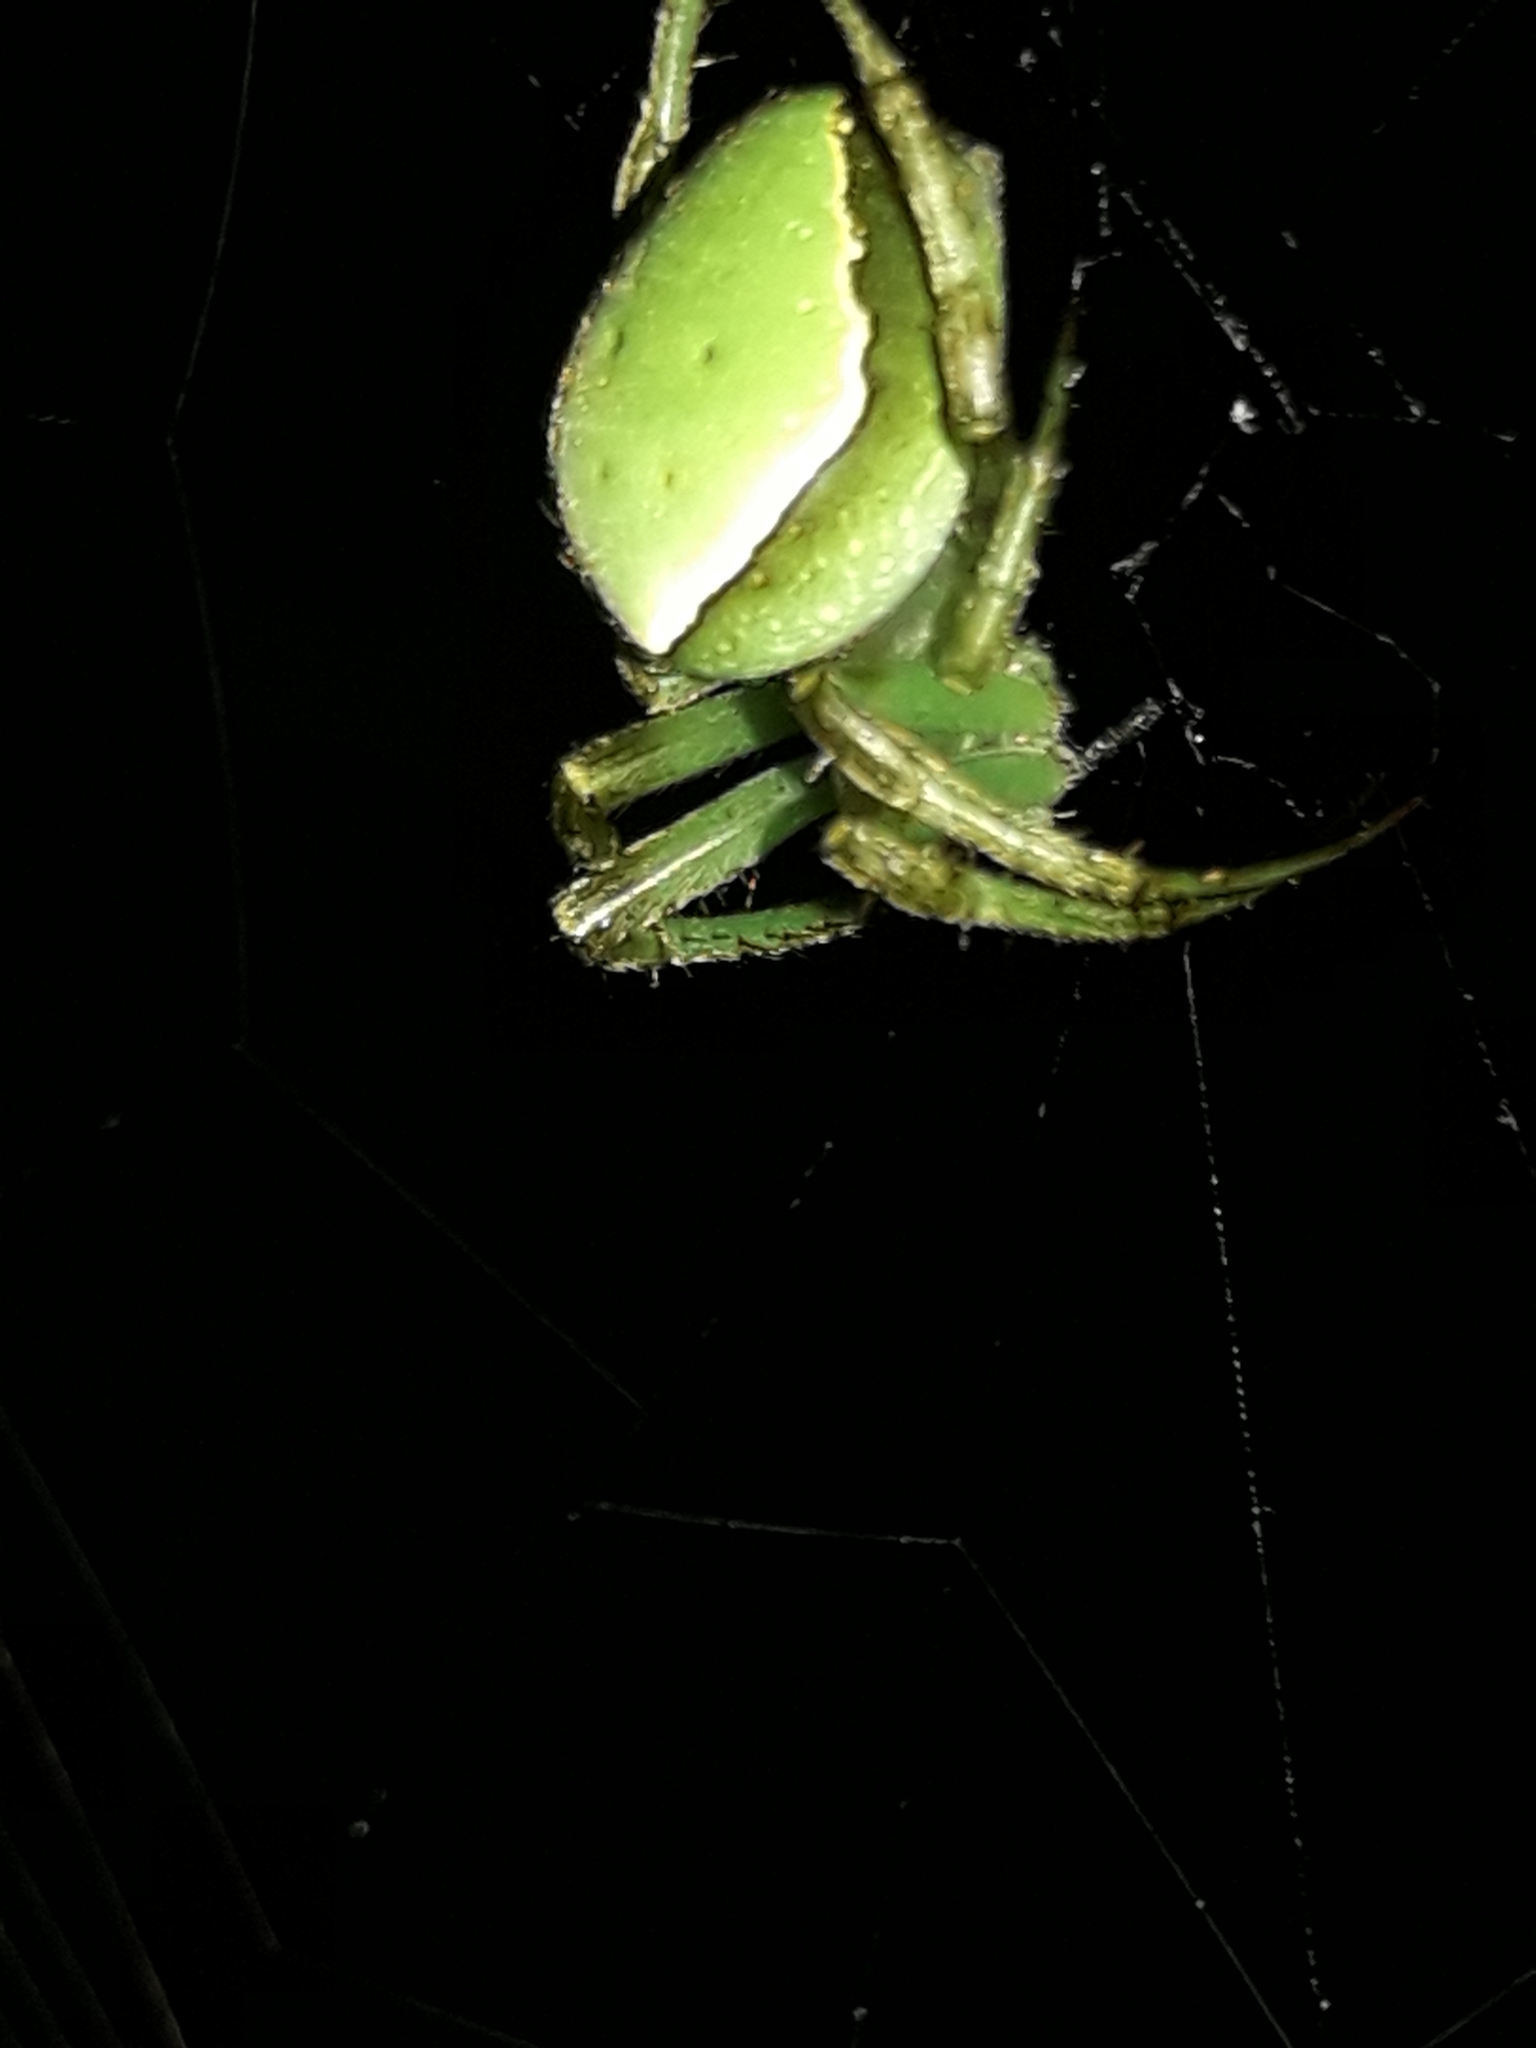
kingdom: Animalia
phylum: Arthropoda
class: Arachnida
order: Araneae
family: Araneidae
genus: Colaranea
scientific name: Colaranea viriditas
